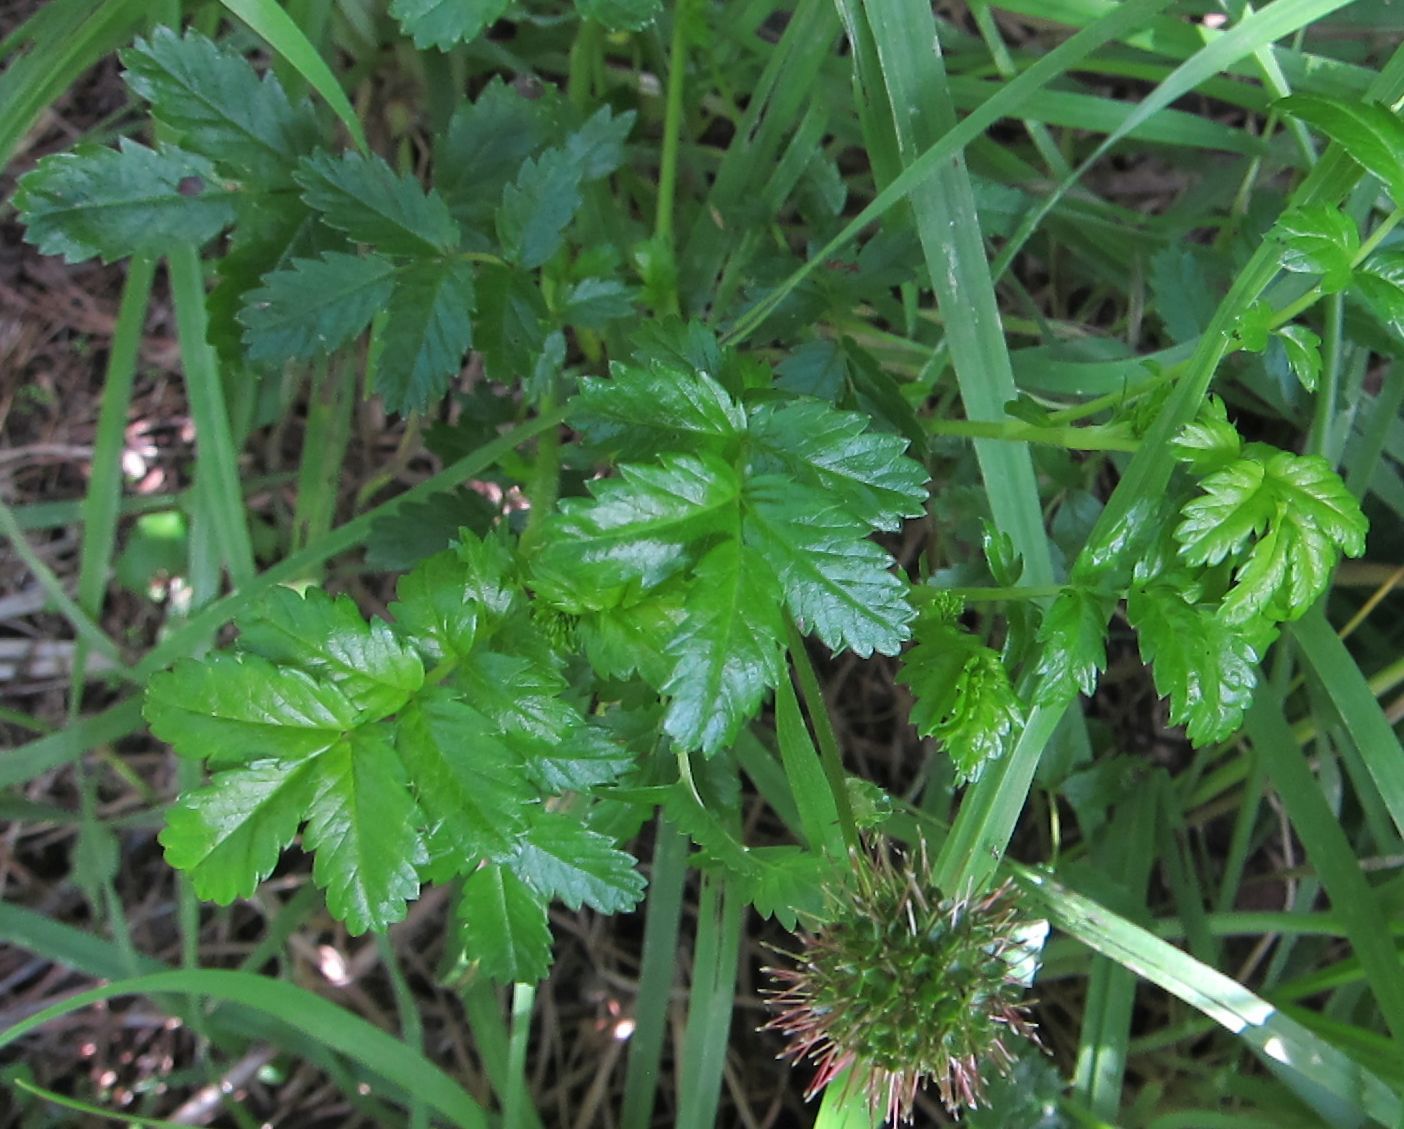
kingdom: Plantae
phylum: Tracheophyta
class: Magnoliopsida
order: Rosales
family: Rosaceae
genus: Acaena
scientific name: Acaena pallida
